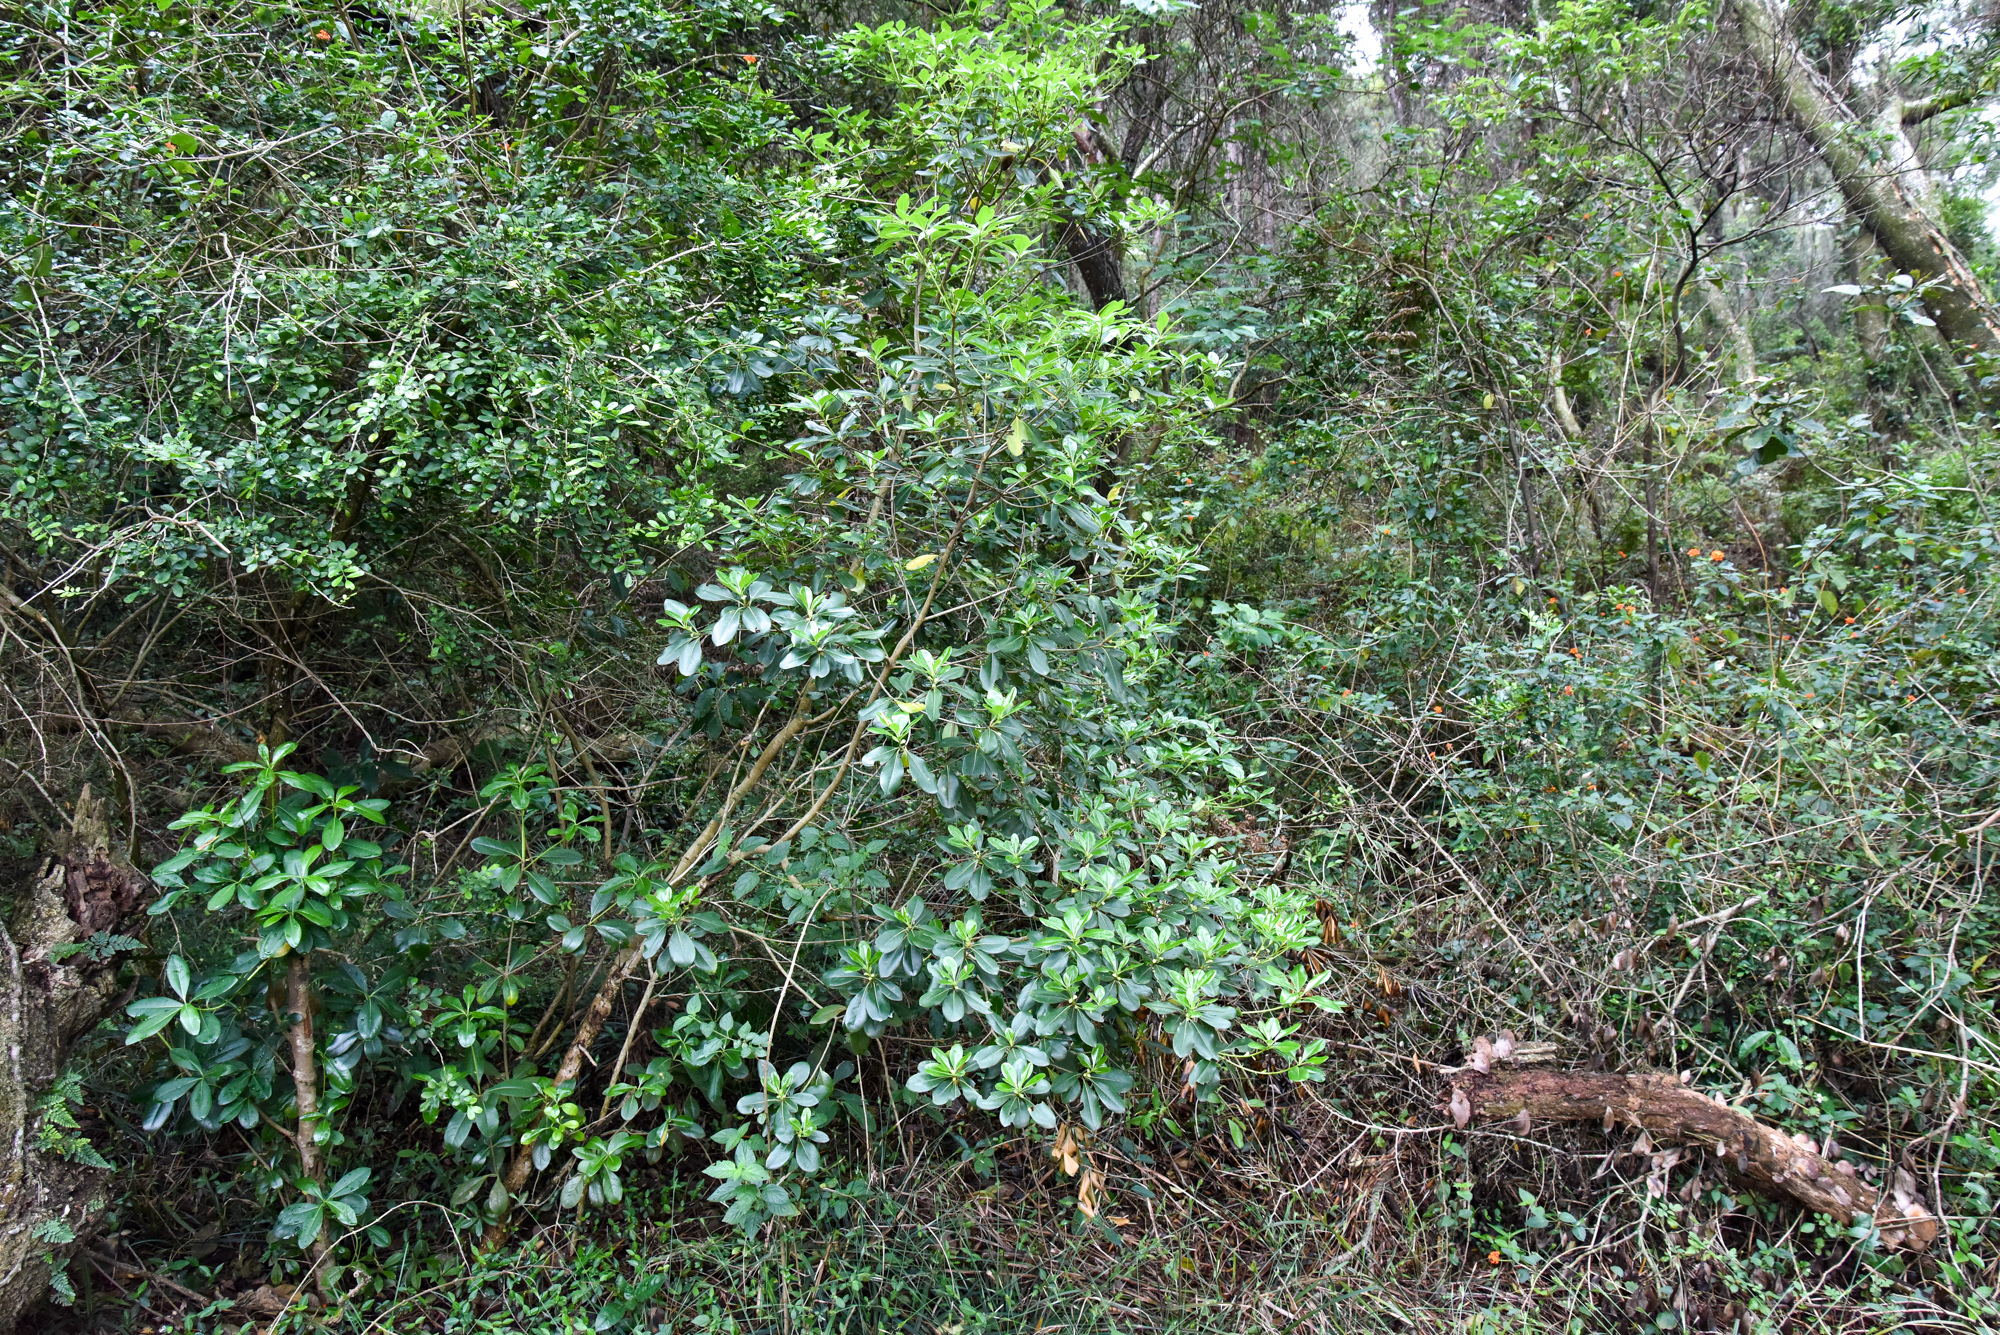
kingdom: Plantae
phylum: Tracheophyta
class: Magnoliopsida
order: Apiales
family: Pittosporaceae
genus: Pittosporum
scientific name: Pittosporum tobira
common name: Japanese cheesewood
